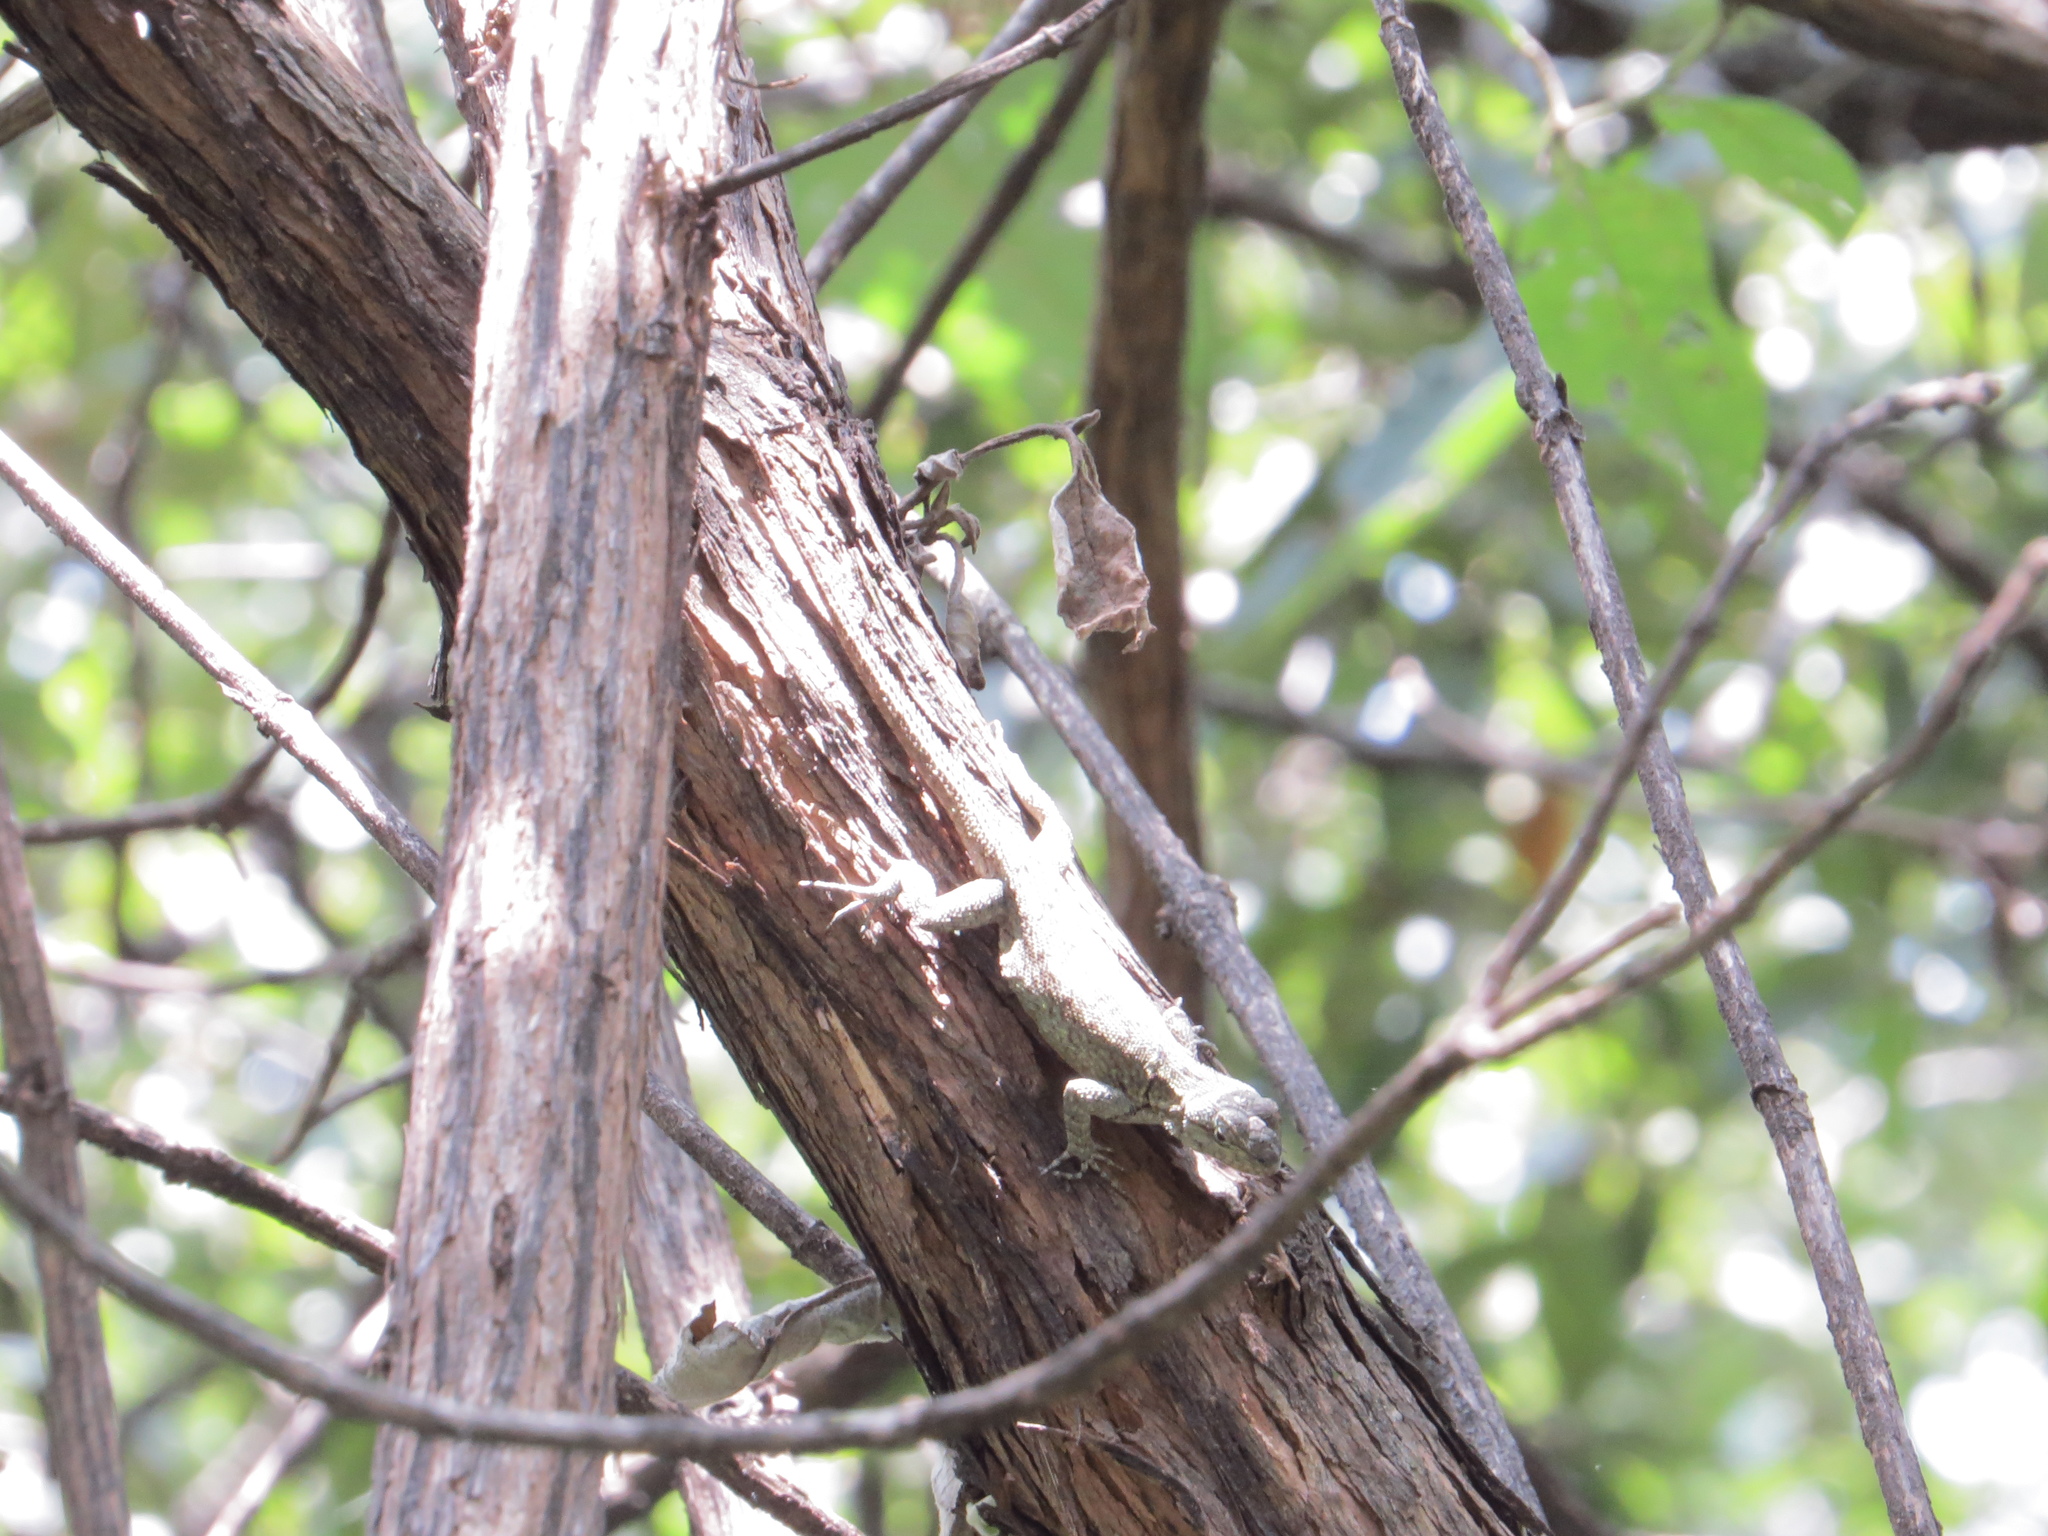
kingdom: Animalia
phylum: Chordata
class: Squamata
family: Phrynosomatidae
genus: Sceloporus
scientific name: Sceloporus grammicus
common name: Mesquite lizard
